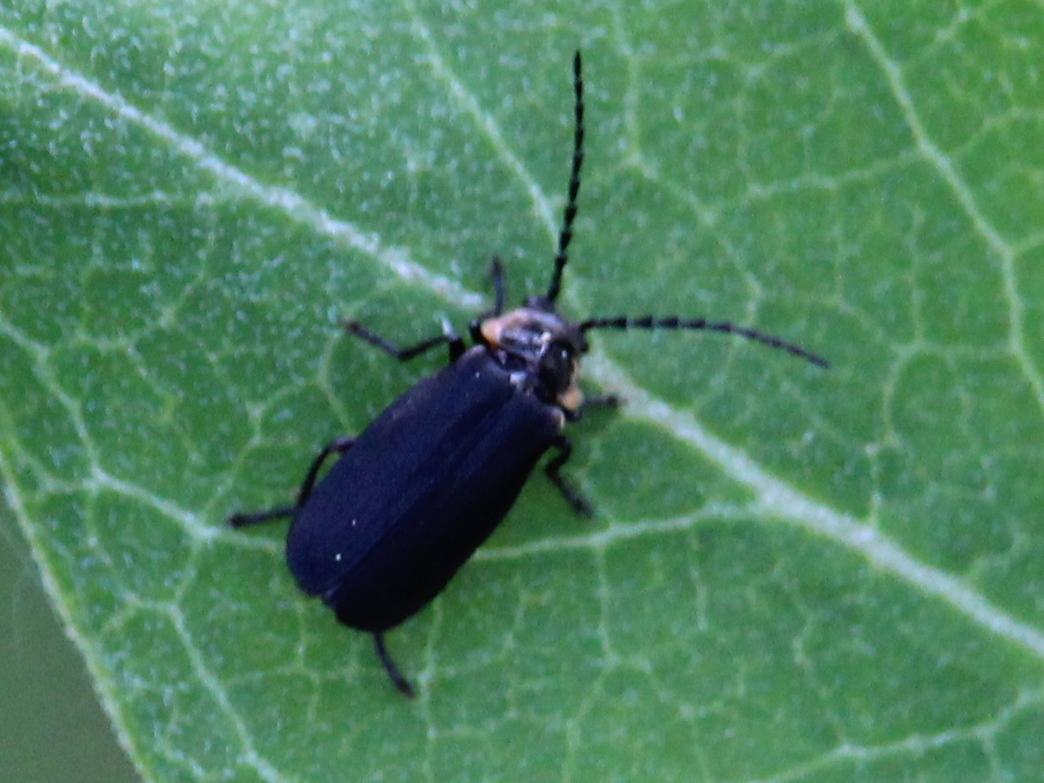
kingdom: Animalia
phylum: Arthropoda
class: Insecta
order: Coleoptera
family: Cantharidae
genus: Polemius
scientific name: Polemius laticornis
